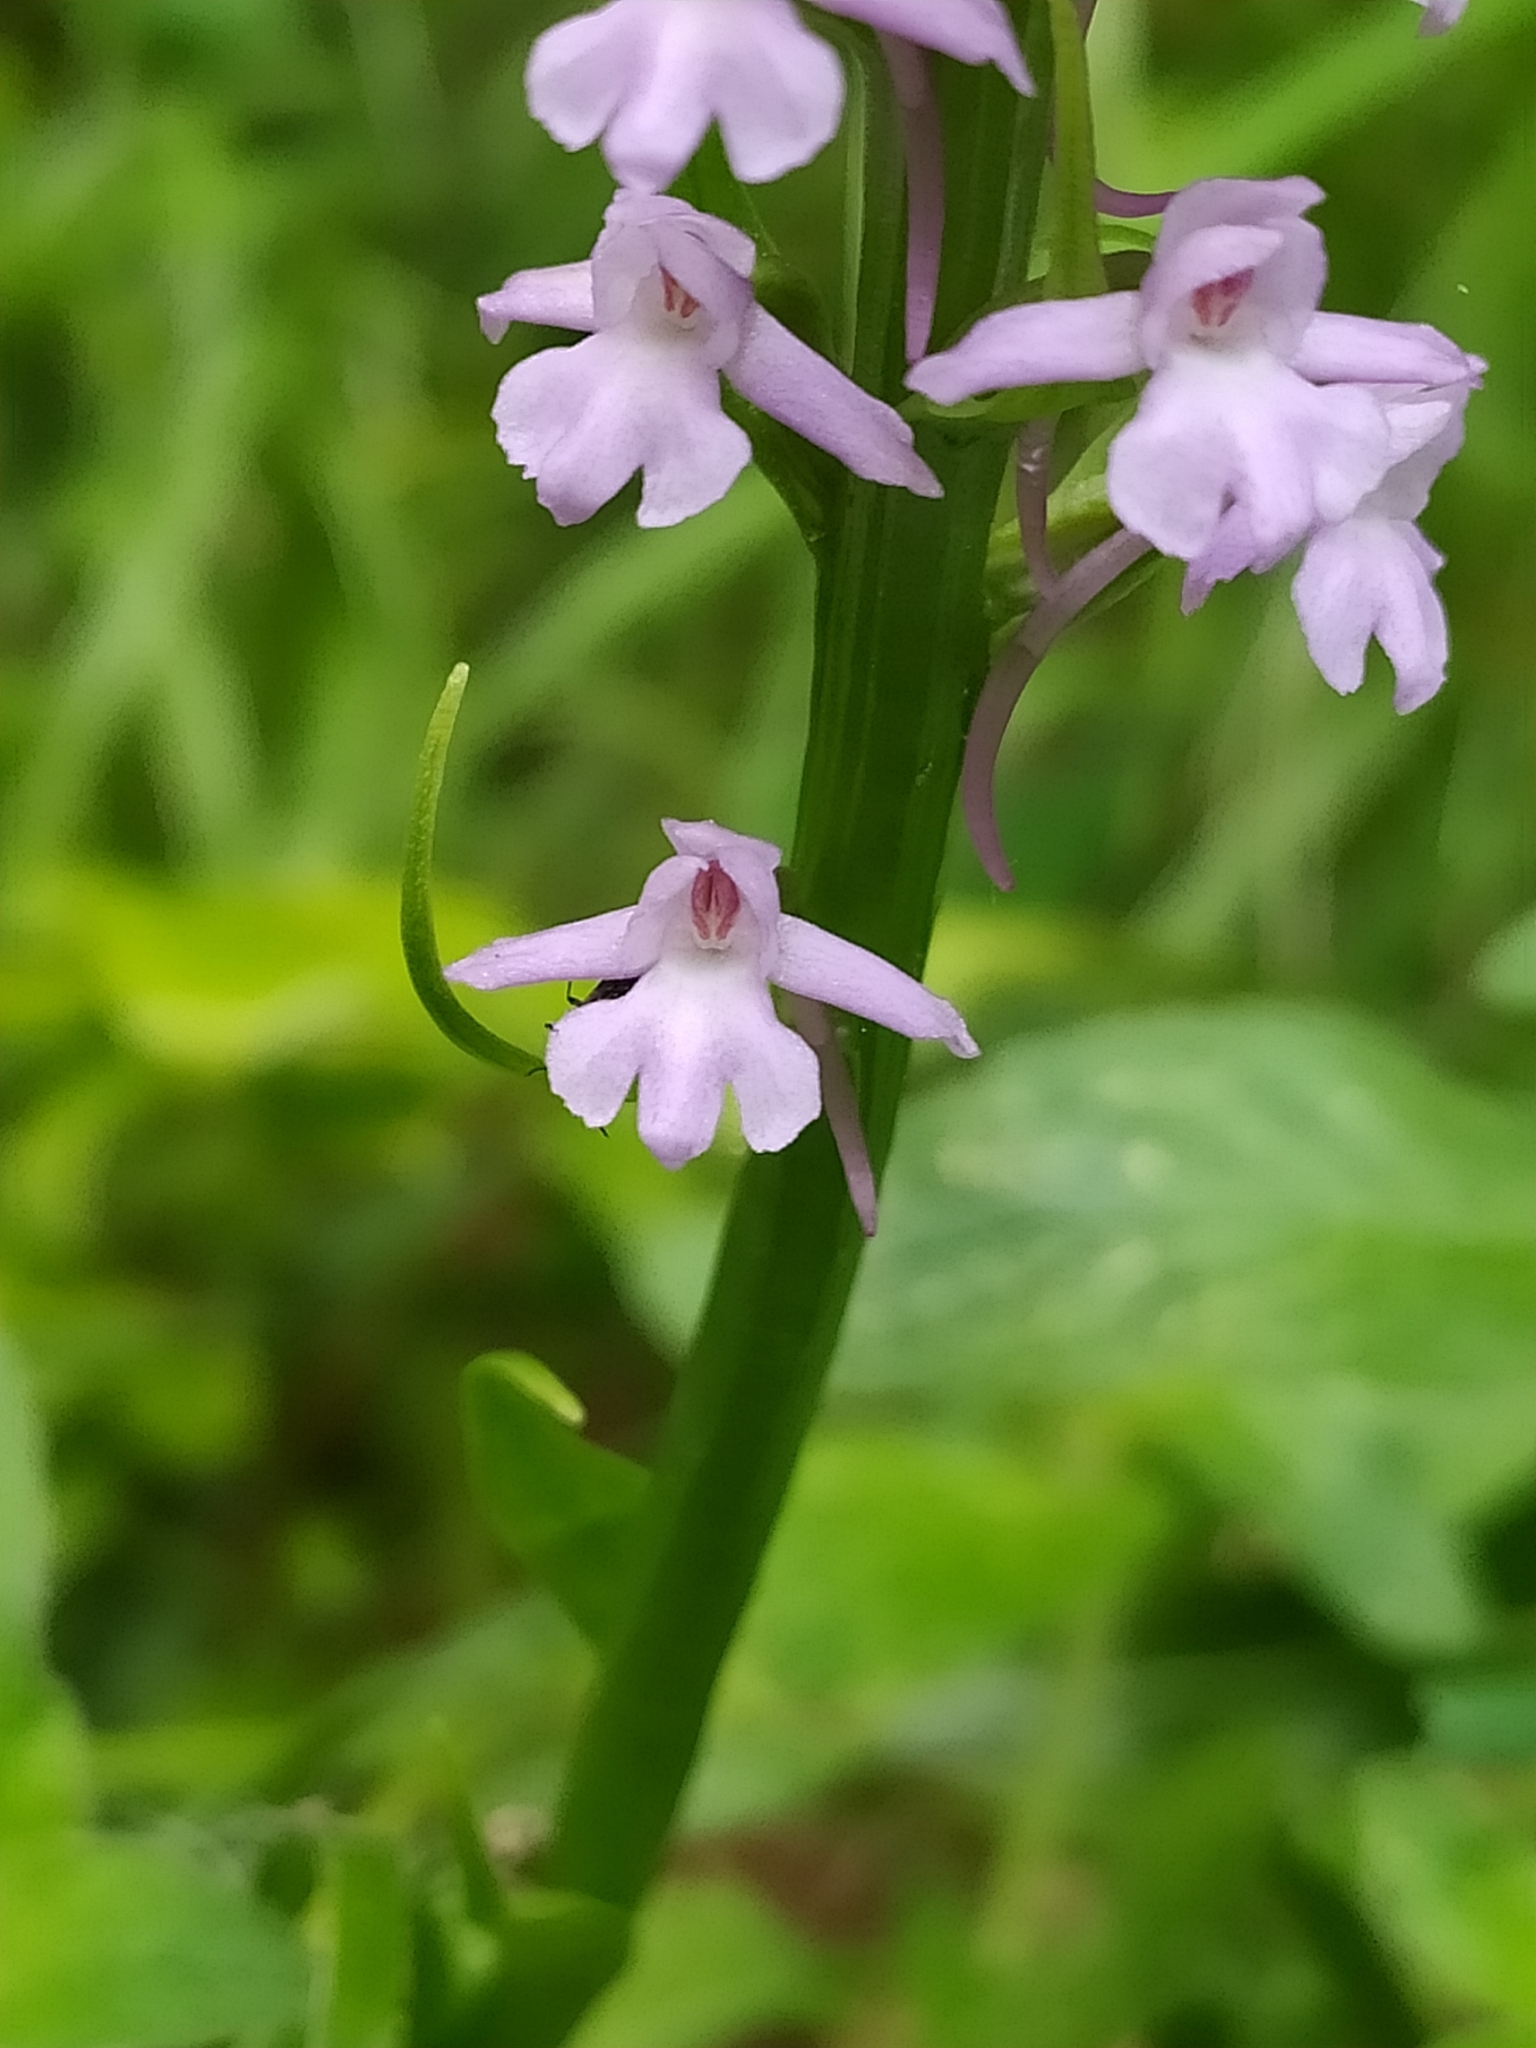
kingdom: Plantae
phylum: Tracheophyta
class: Liliopsida
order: Asparagales
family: Orchidaceae
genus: Gymnadenia
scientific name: Gymnadenia conopsea
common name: Fragrant orchid
